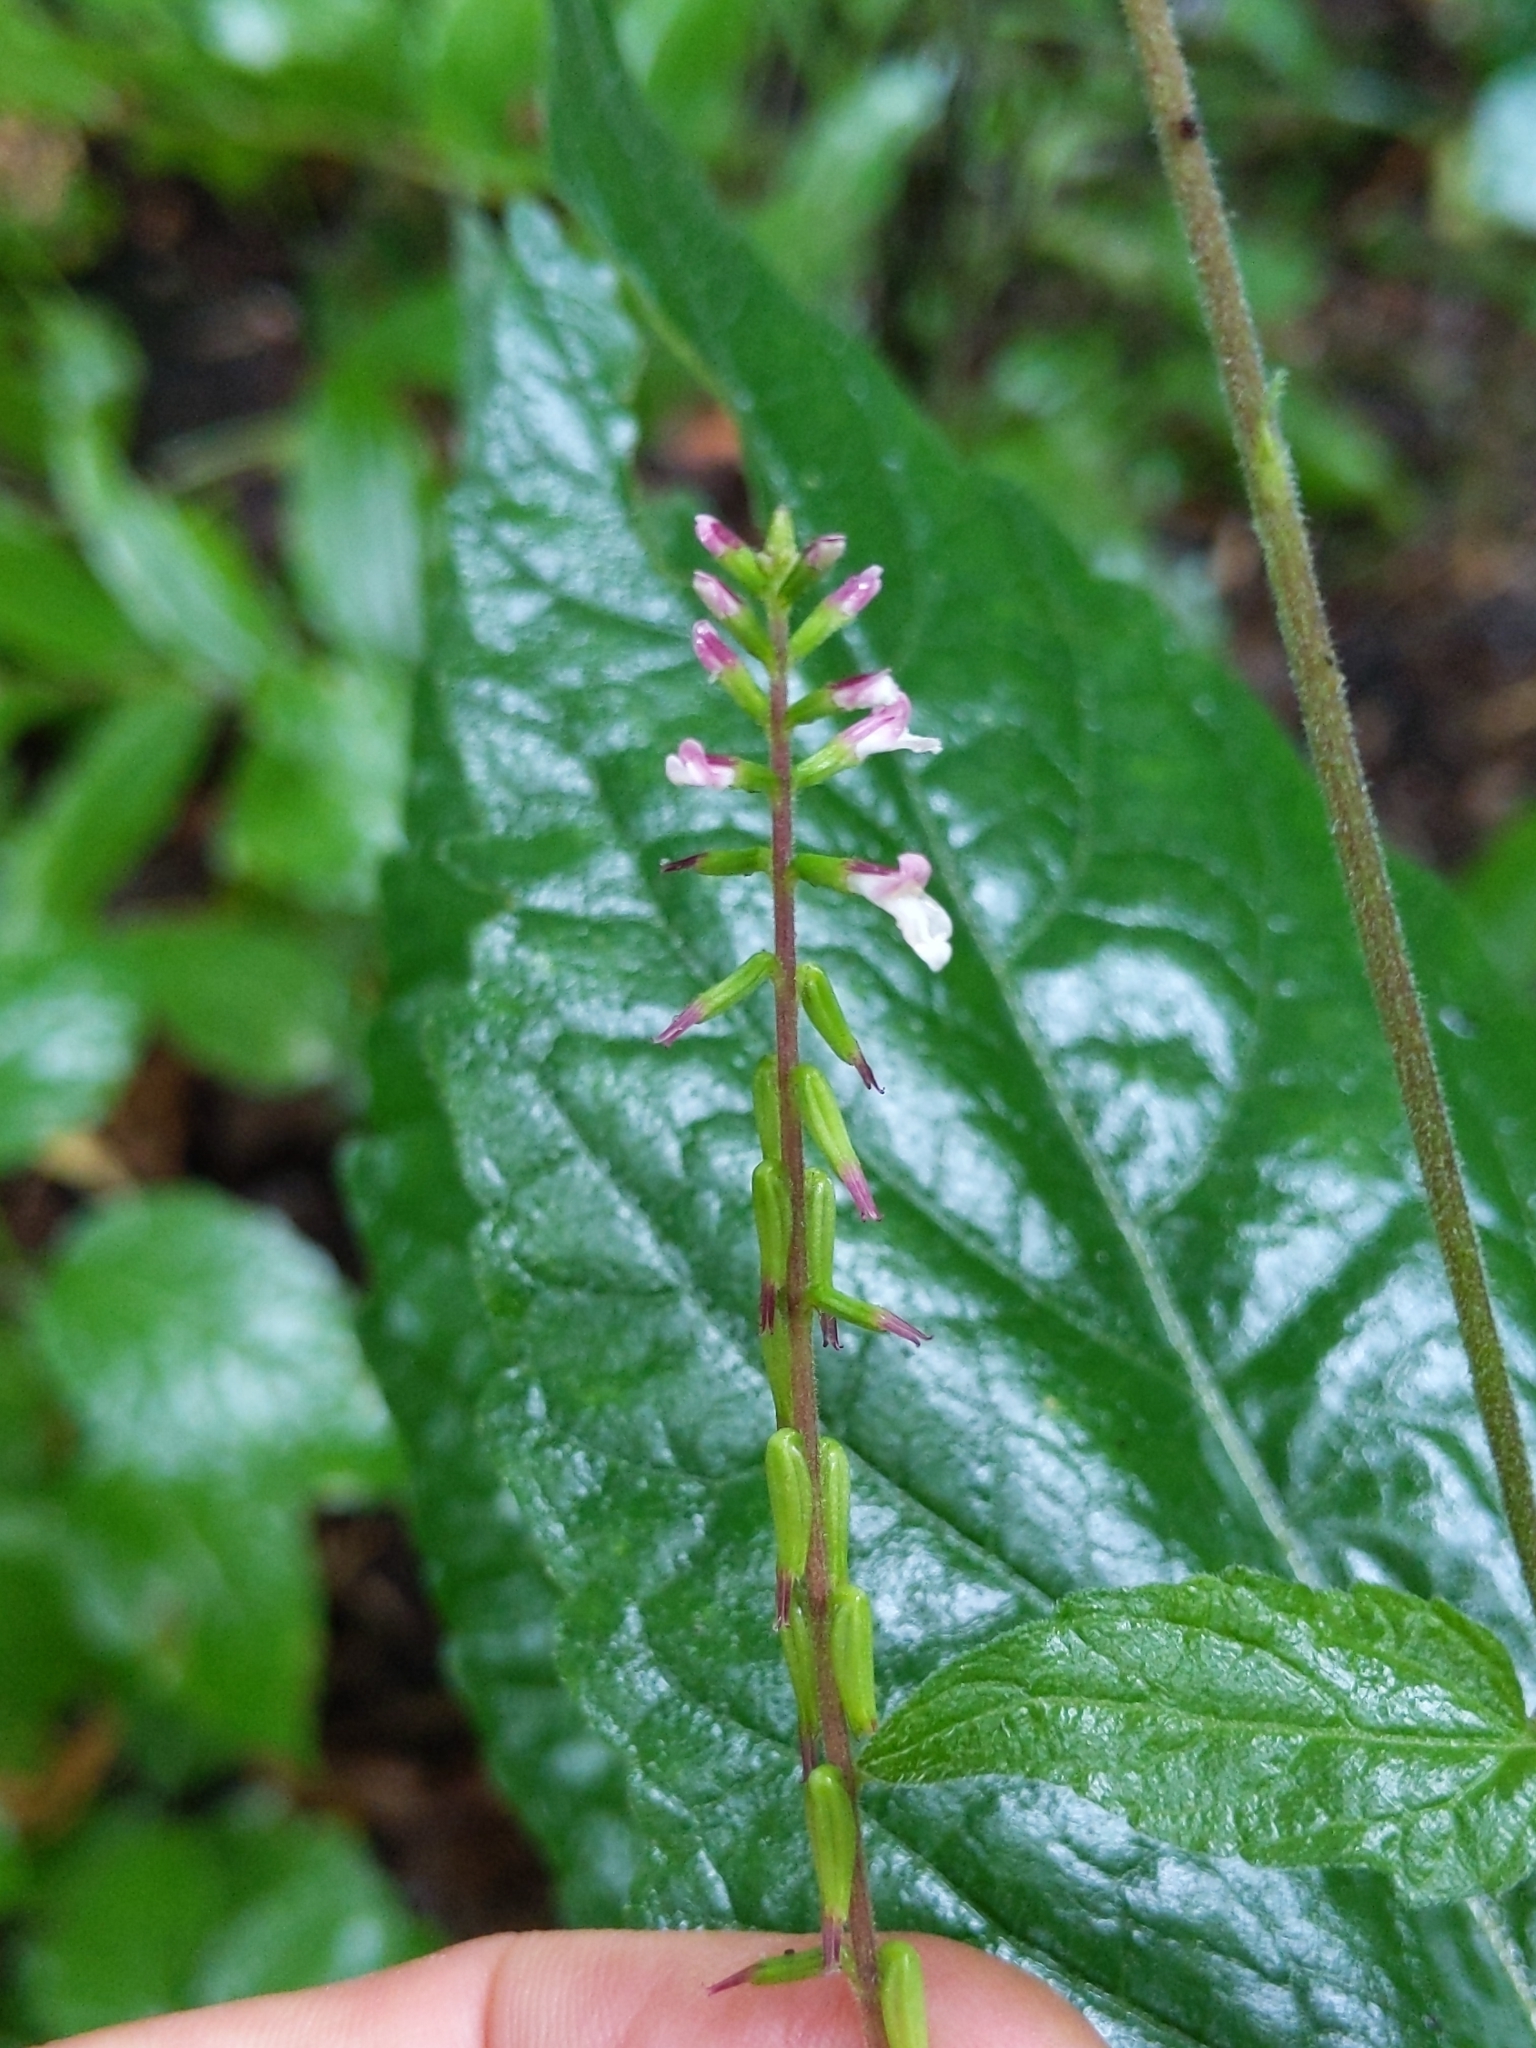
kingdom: Plantae
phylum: Tracheophyta
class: Magnoliopsida
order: Lamiales
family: Phrymaceae
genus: Phryma
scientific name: Phryma leptostachya
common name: American lopseed
